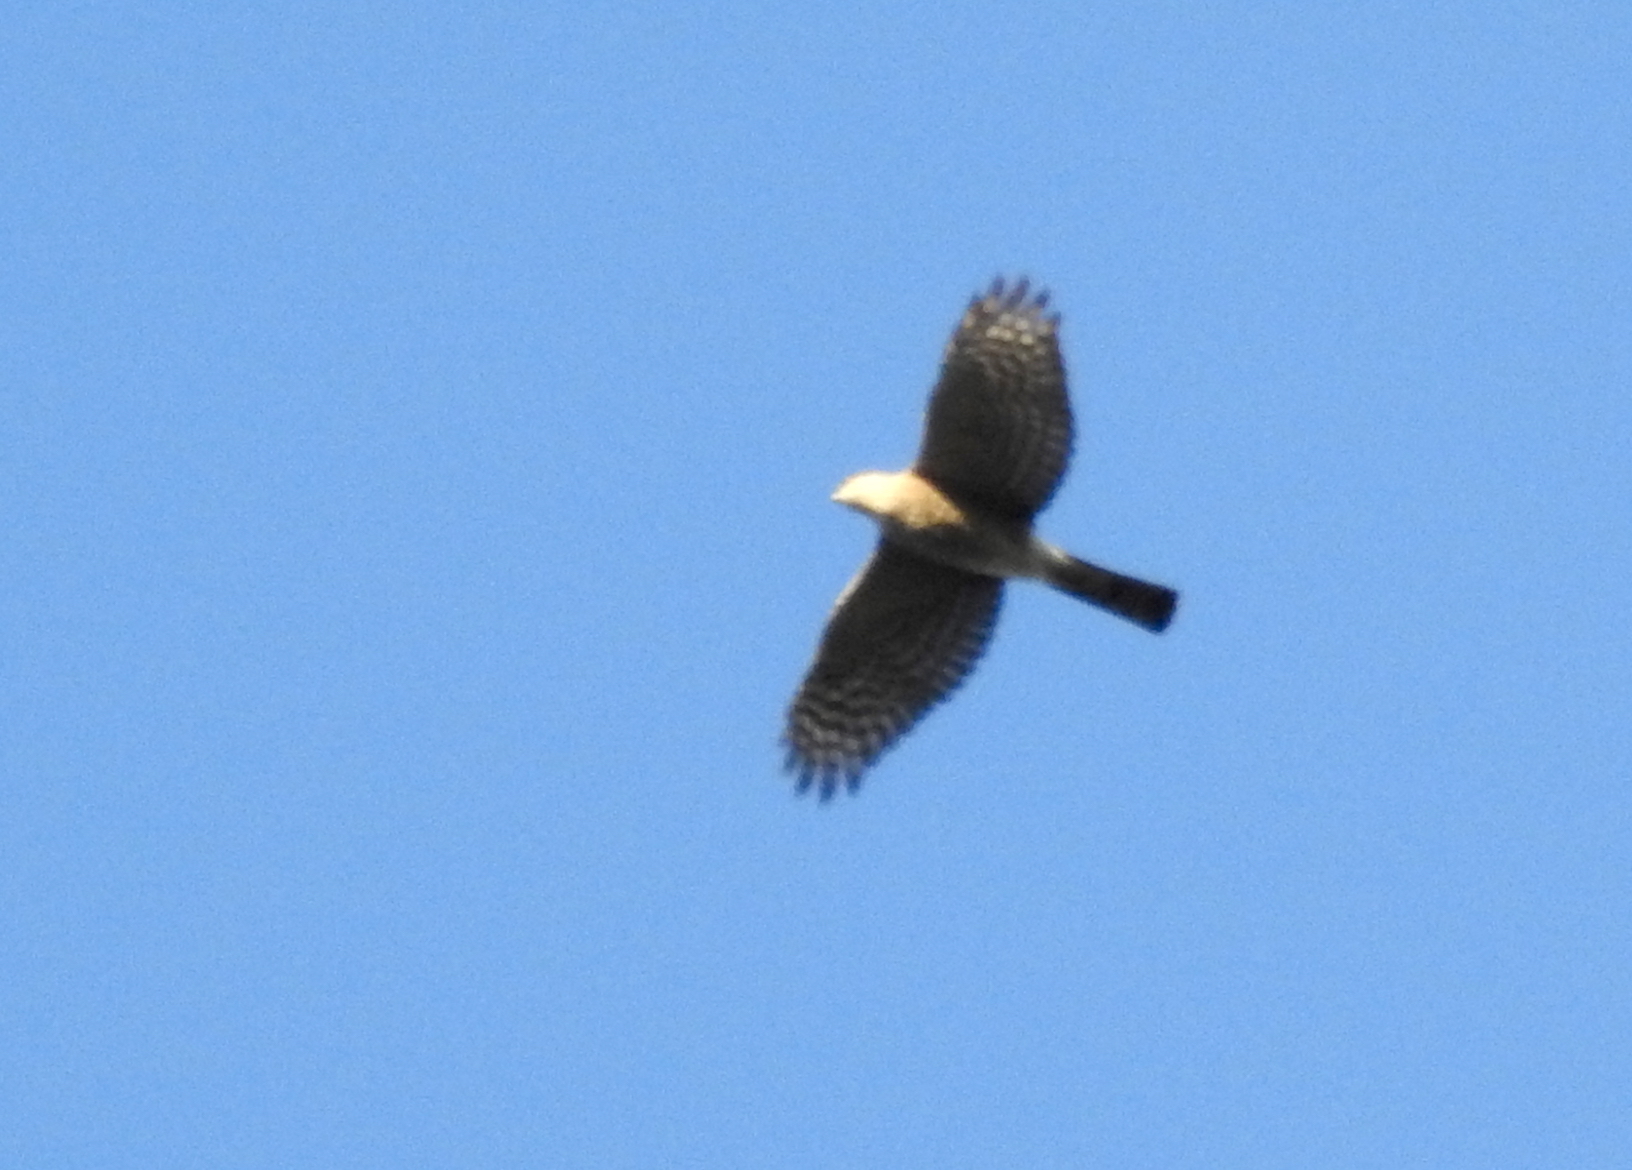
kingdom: Animalia
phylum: Chordata
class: Aves
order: Accipitriformes
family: Accipitridae
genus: Accipiter
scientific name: Accipiter striatus
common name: Sharp-shinned hawk
